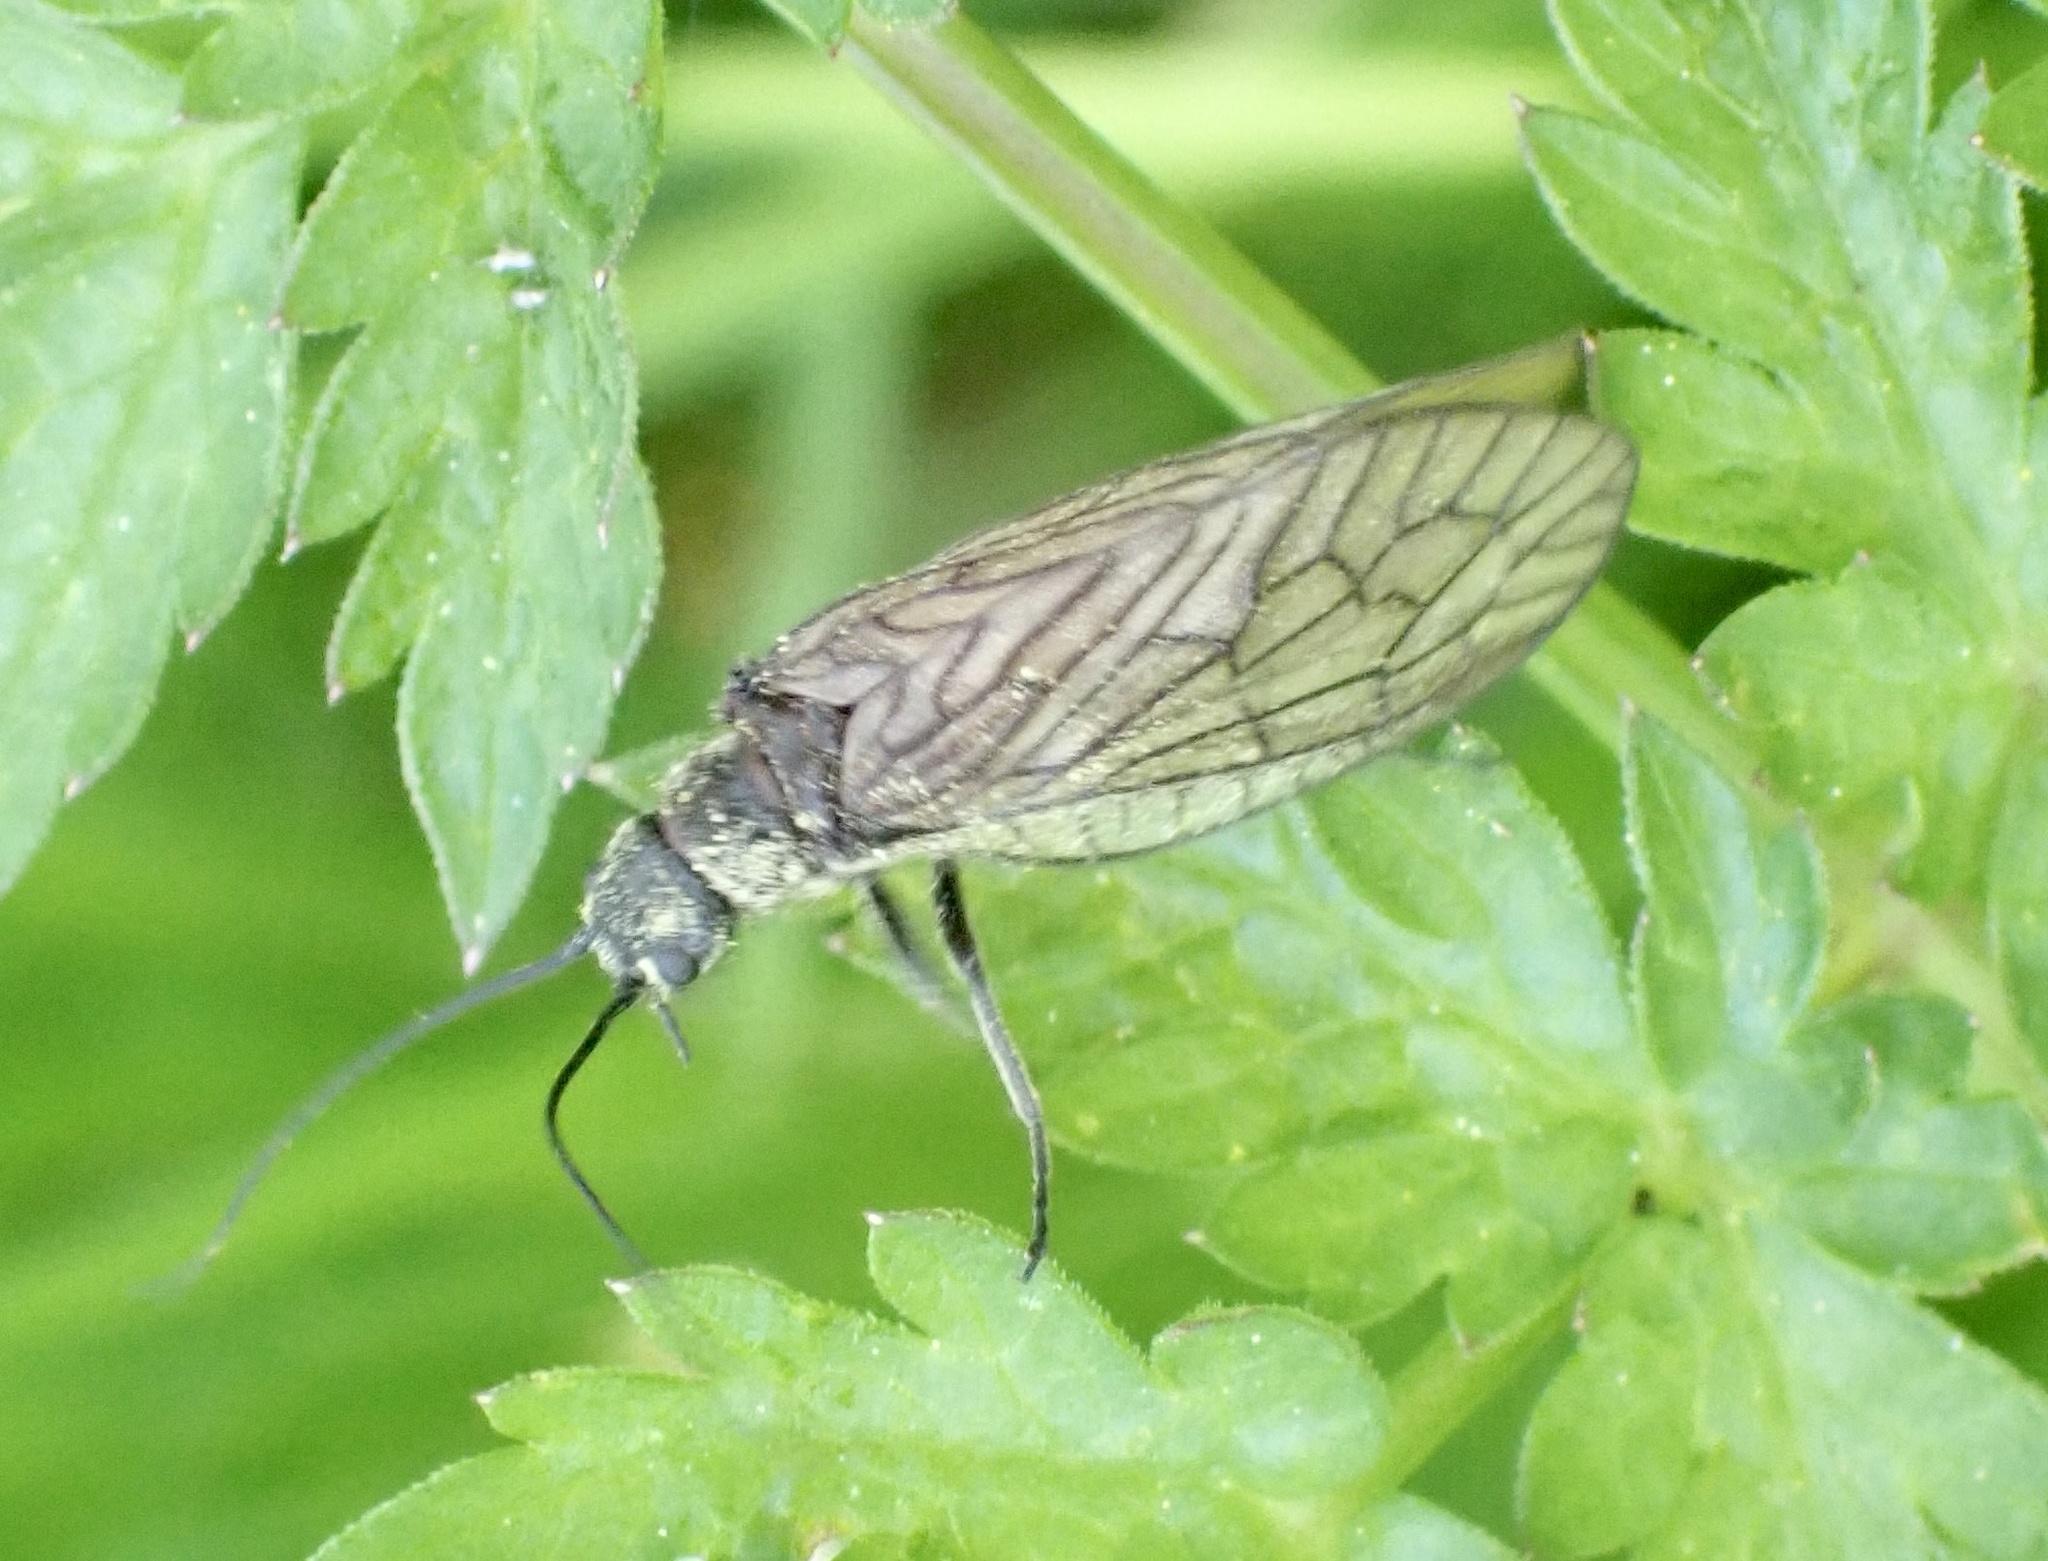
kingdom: Animalia
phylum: Arthropoda
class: Insecta
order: Megaloptera
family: Sialidae
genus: Sialis
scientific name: Sialis
